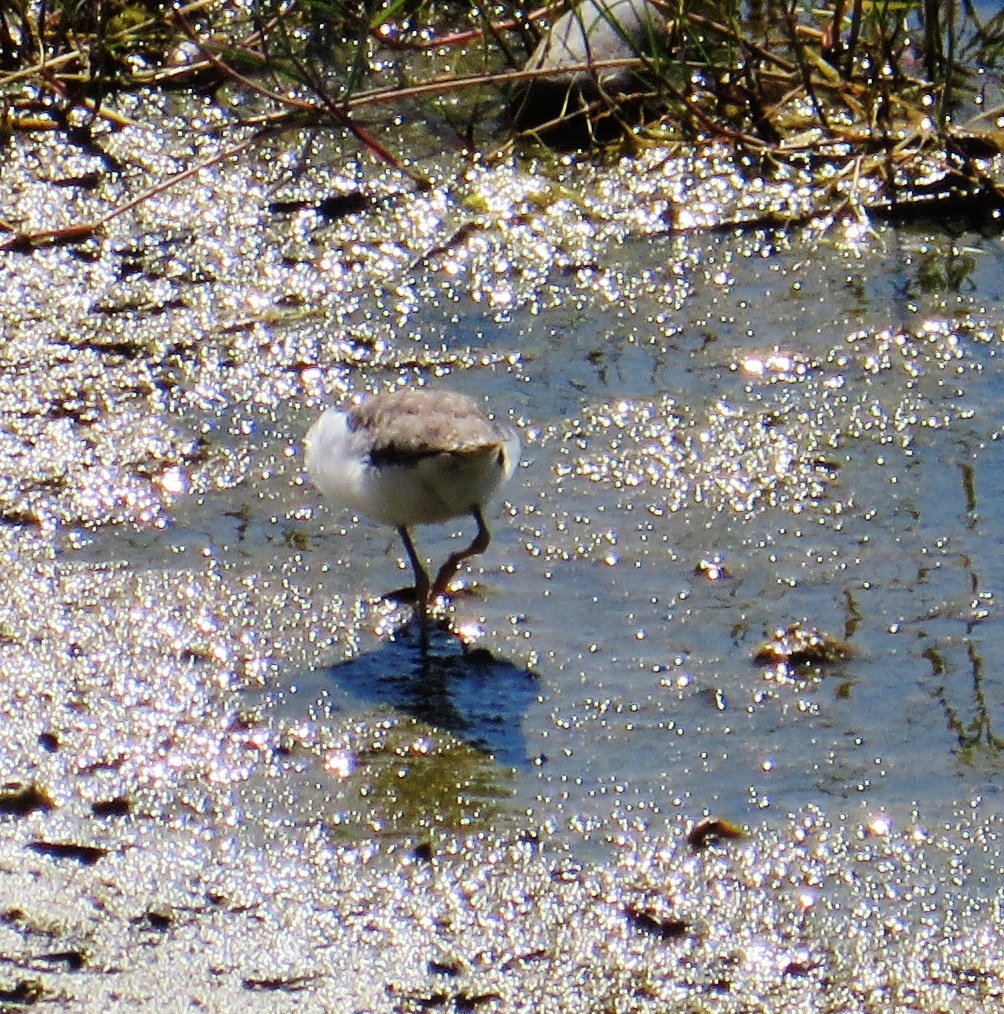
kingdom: Animalia
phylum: Chordata
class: Aves
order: Charadriiformes
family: Charadriidae
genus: Charadrius
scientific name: Charadrius tricollaris
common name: Three-banded plover
